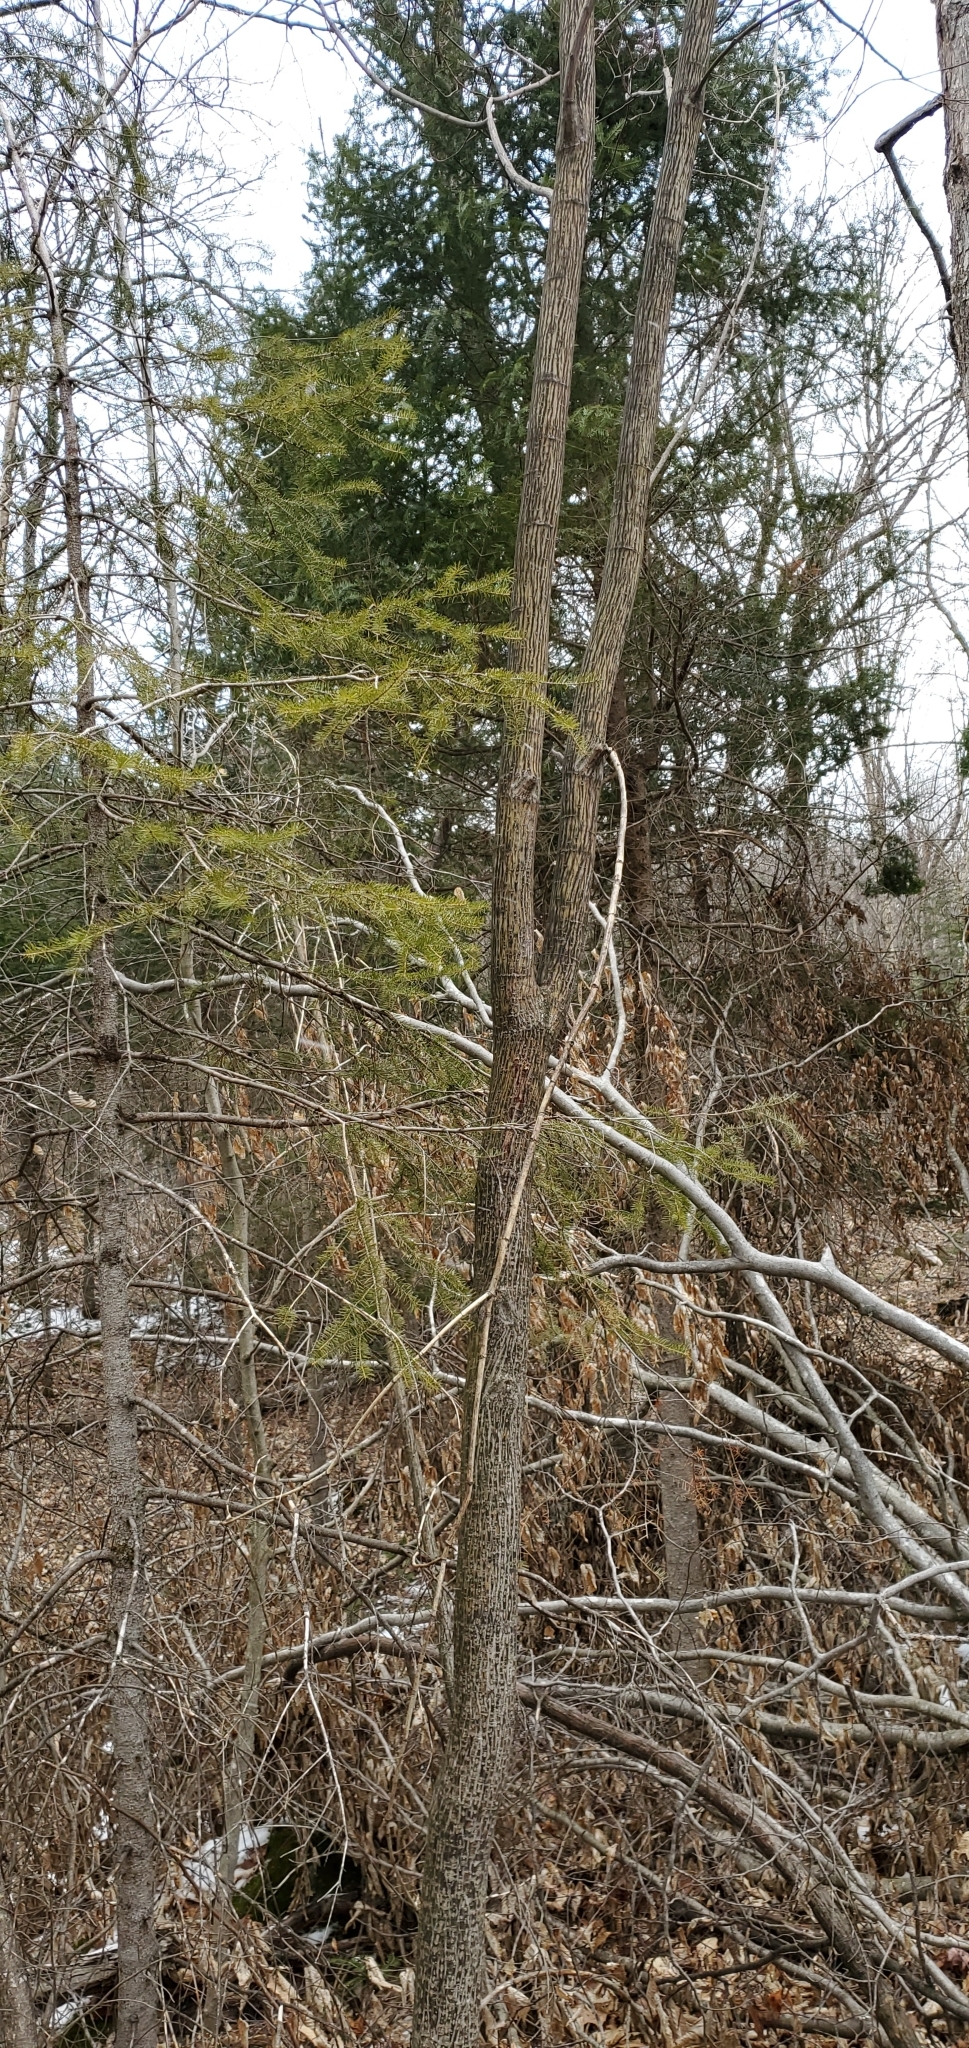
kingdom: Plantae
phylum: Tracheophyta
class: Magnoliopsida
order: Sapindales
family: Sapindaceae
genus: Acer
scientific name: Acer pensylvanicum
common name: Moosewood
